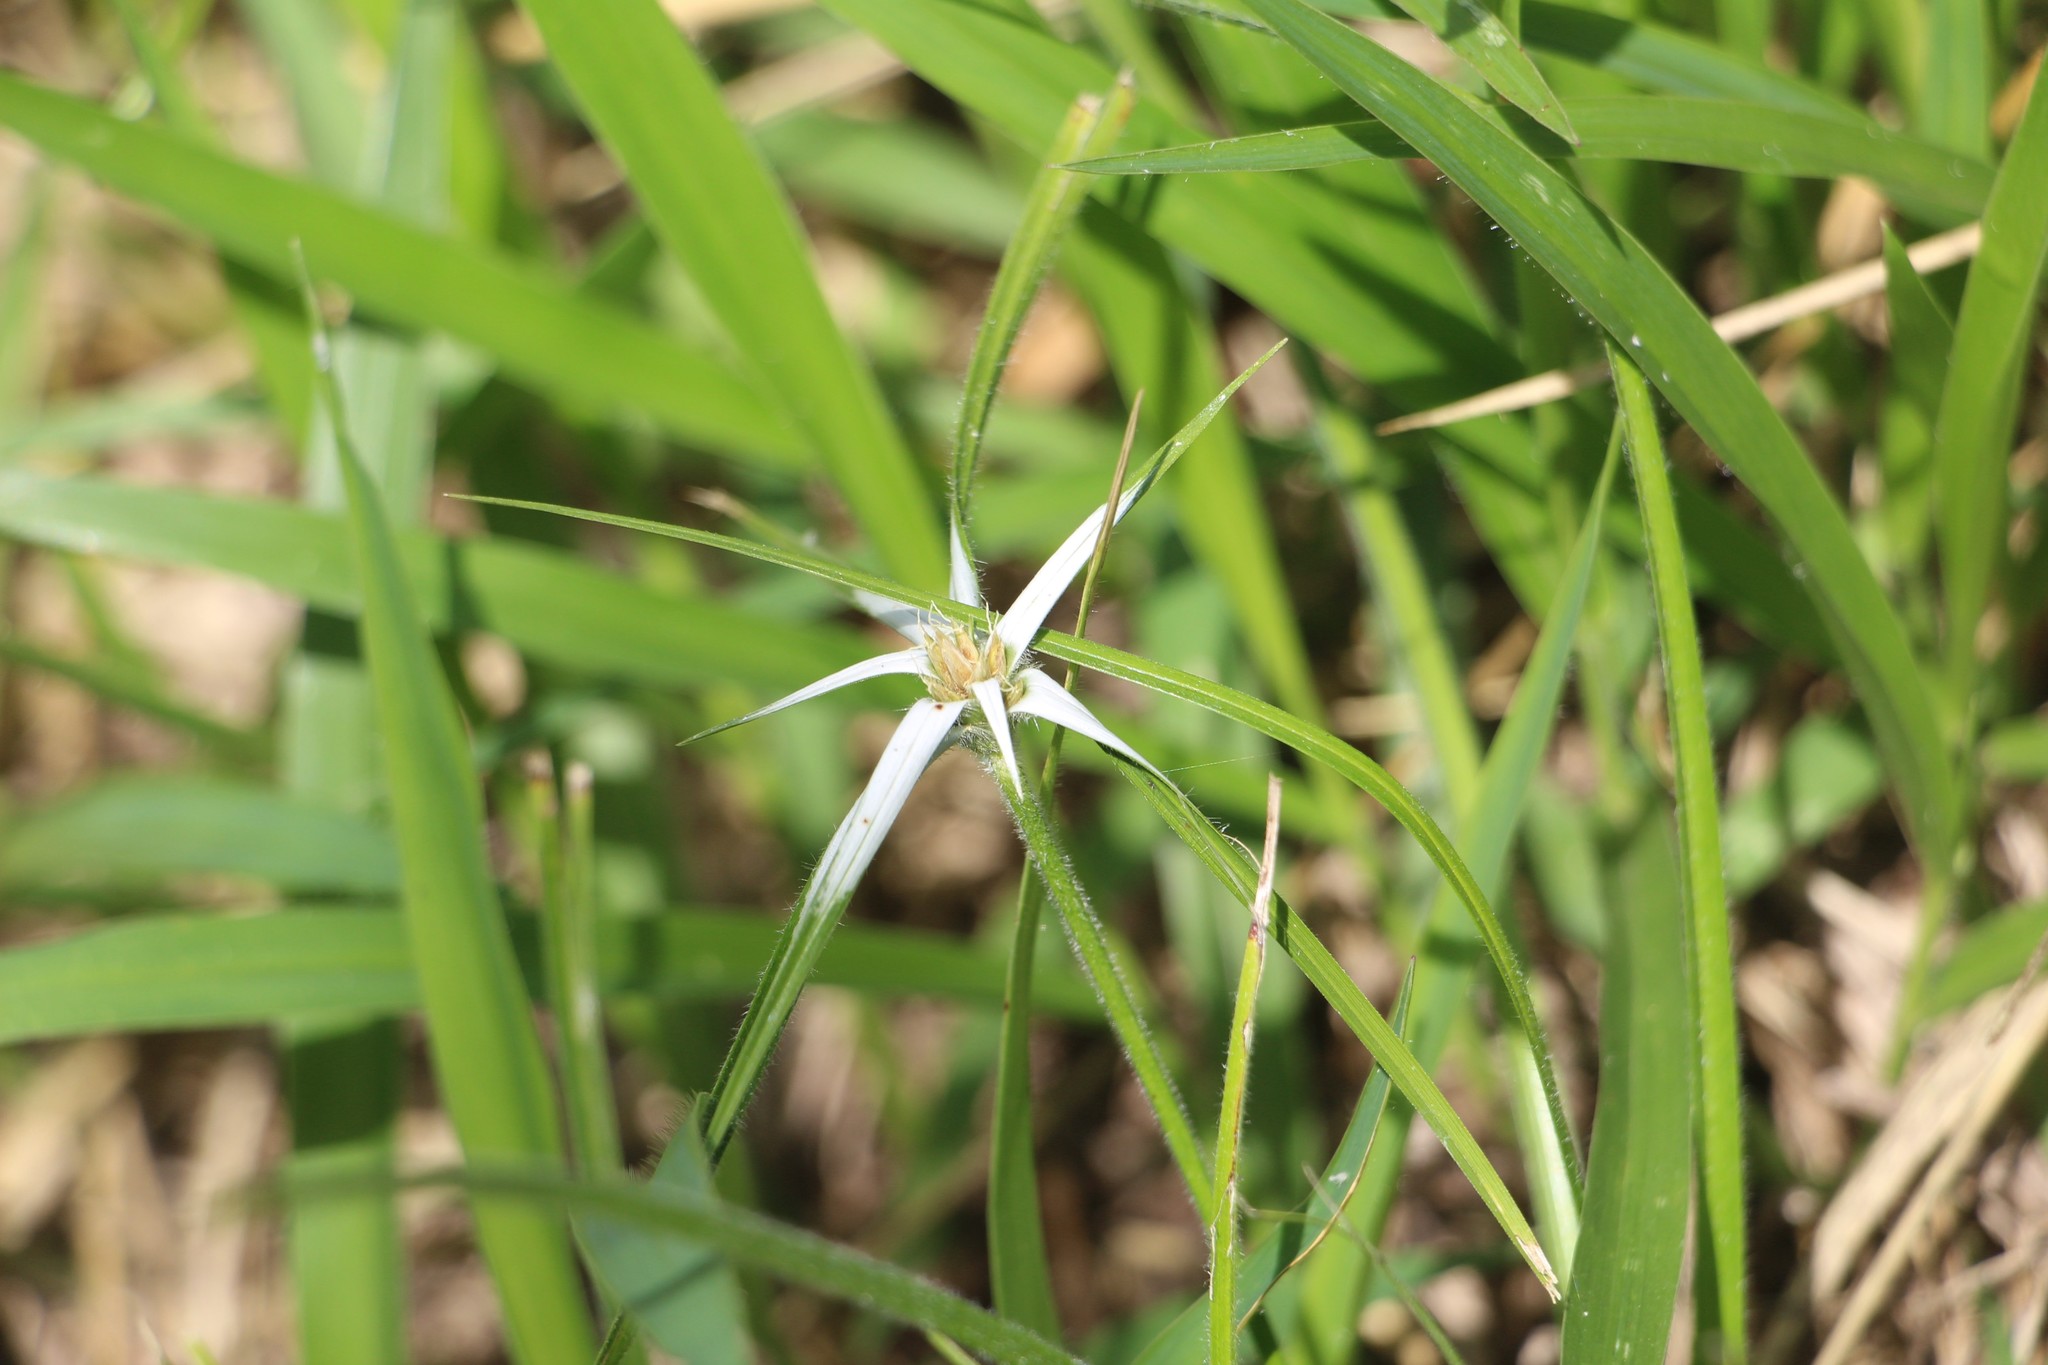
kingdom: Plantae
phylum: Tracheophyta
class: Liliopsida
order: Poales
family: Cyperaceae
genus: Rhynchospora
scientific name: Rhynchospora nervosa
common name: Star sedge
